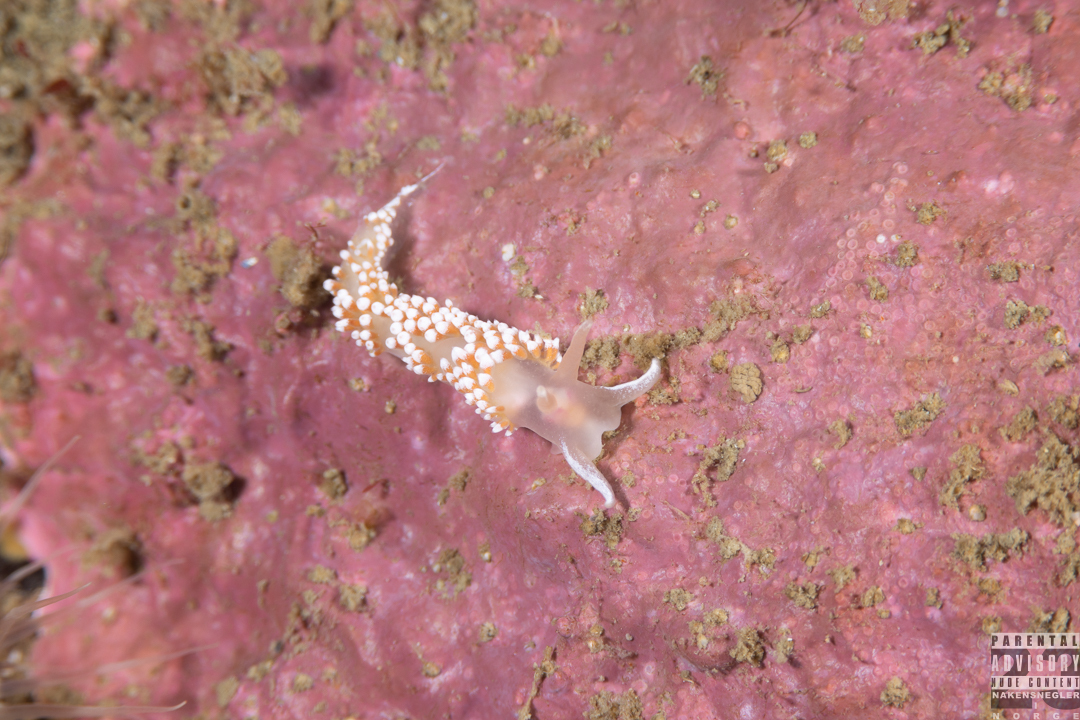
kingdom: Animalia
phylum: Mollusca
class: Gastropoda
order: Nudibranchia
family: Coryphellidae
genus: Coryphella
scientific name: Coryphella verrucosa
